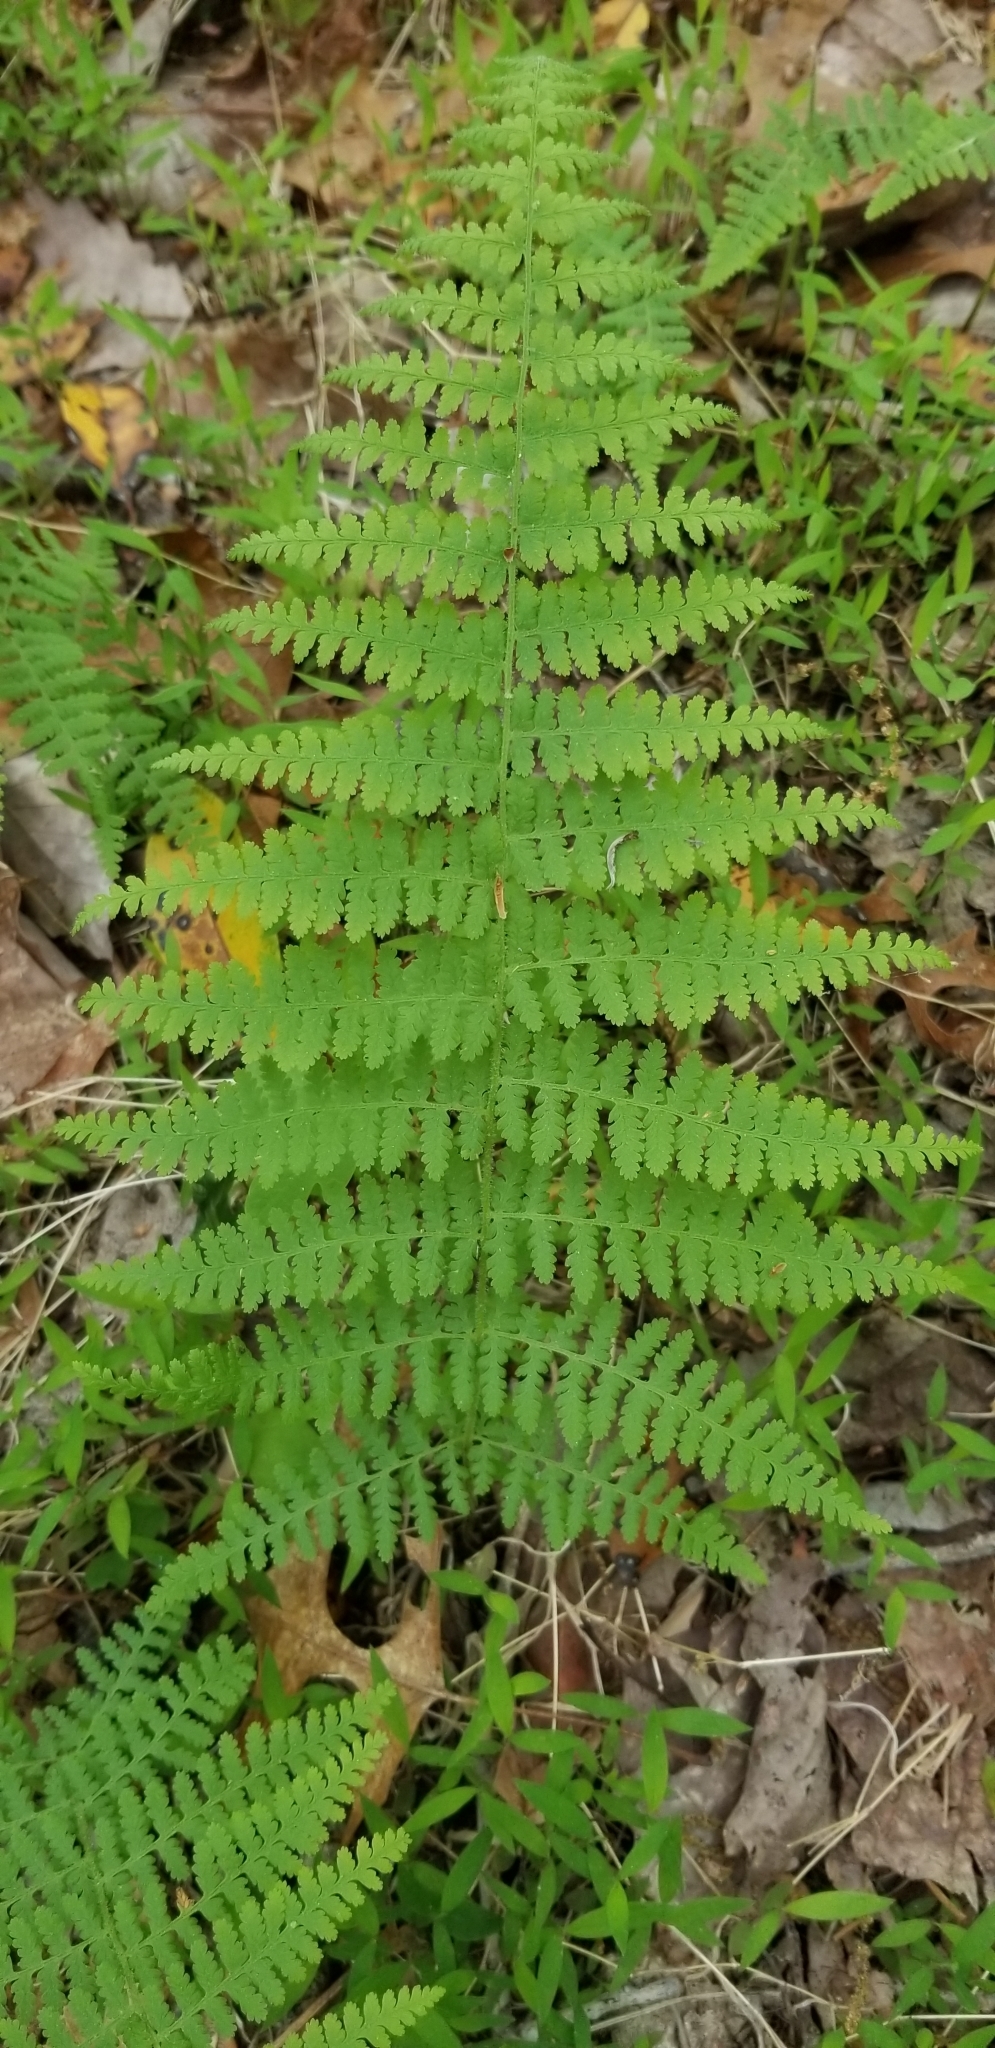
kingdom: Plantae
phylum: Tracheophyta
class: Polypodiopsida
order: Polypodiales
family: Dennstaedtiaceae
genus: Sitobolium
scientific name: Sitobolium punctilobum
